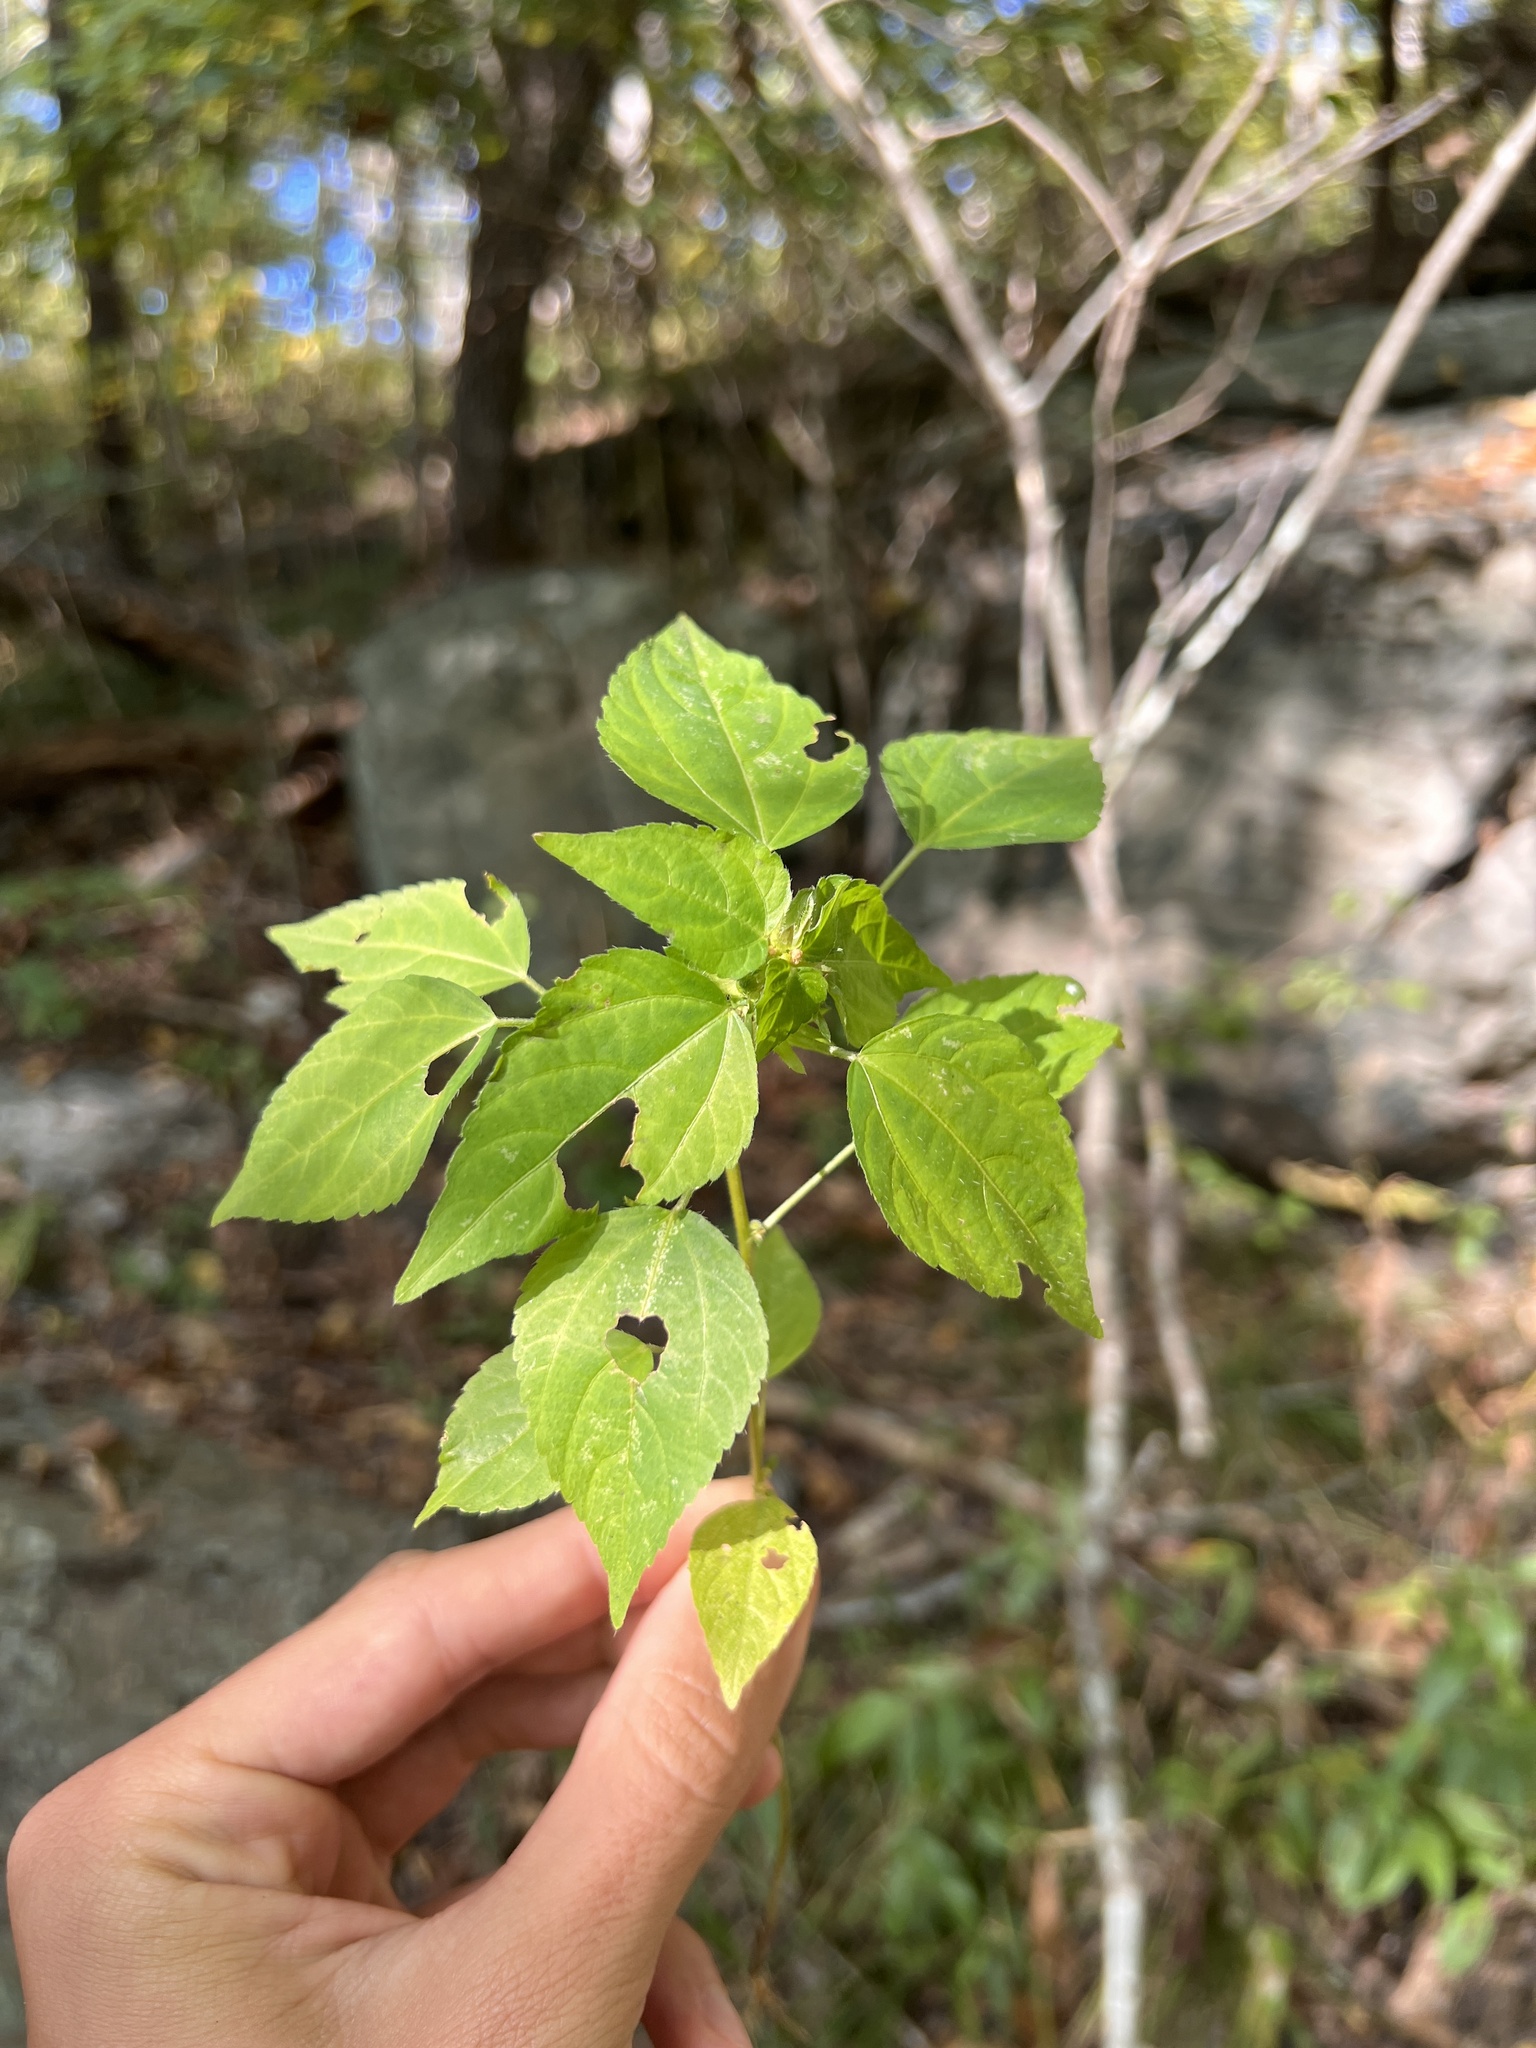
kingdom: Plantae
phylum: Tracheophyta
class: Magnoliopsida
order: Malpighiales
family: Euphorbiaceae
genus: Acalypha
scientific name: Acalypha deamii
